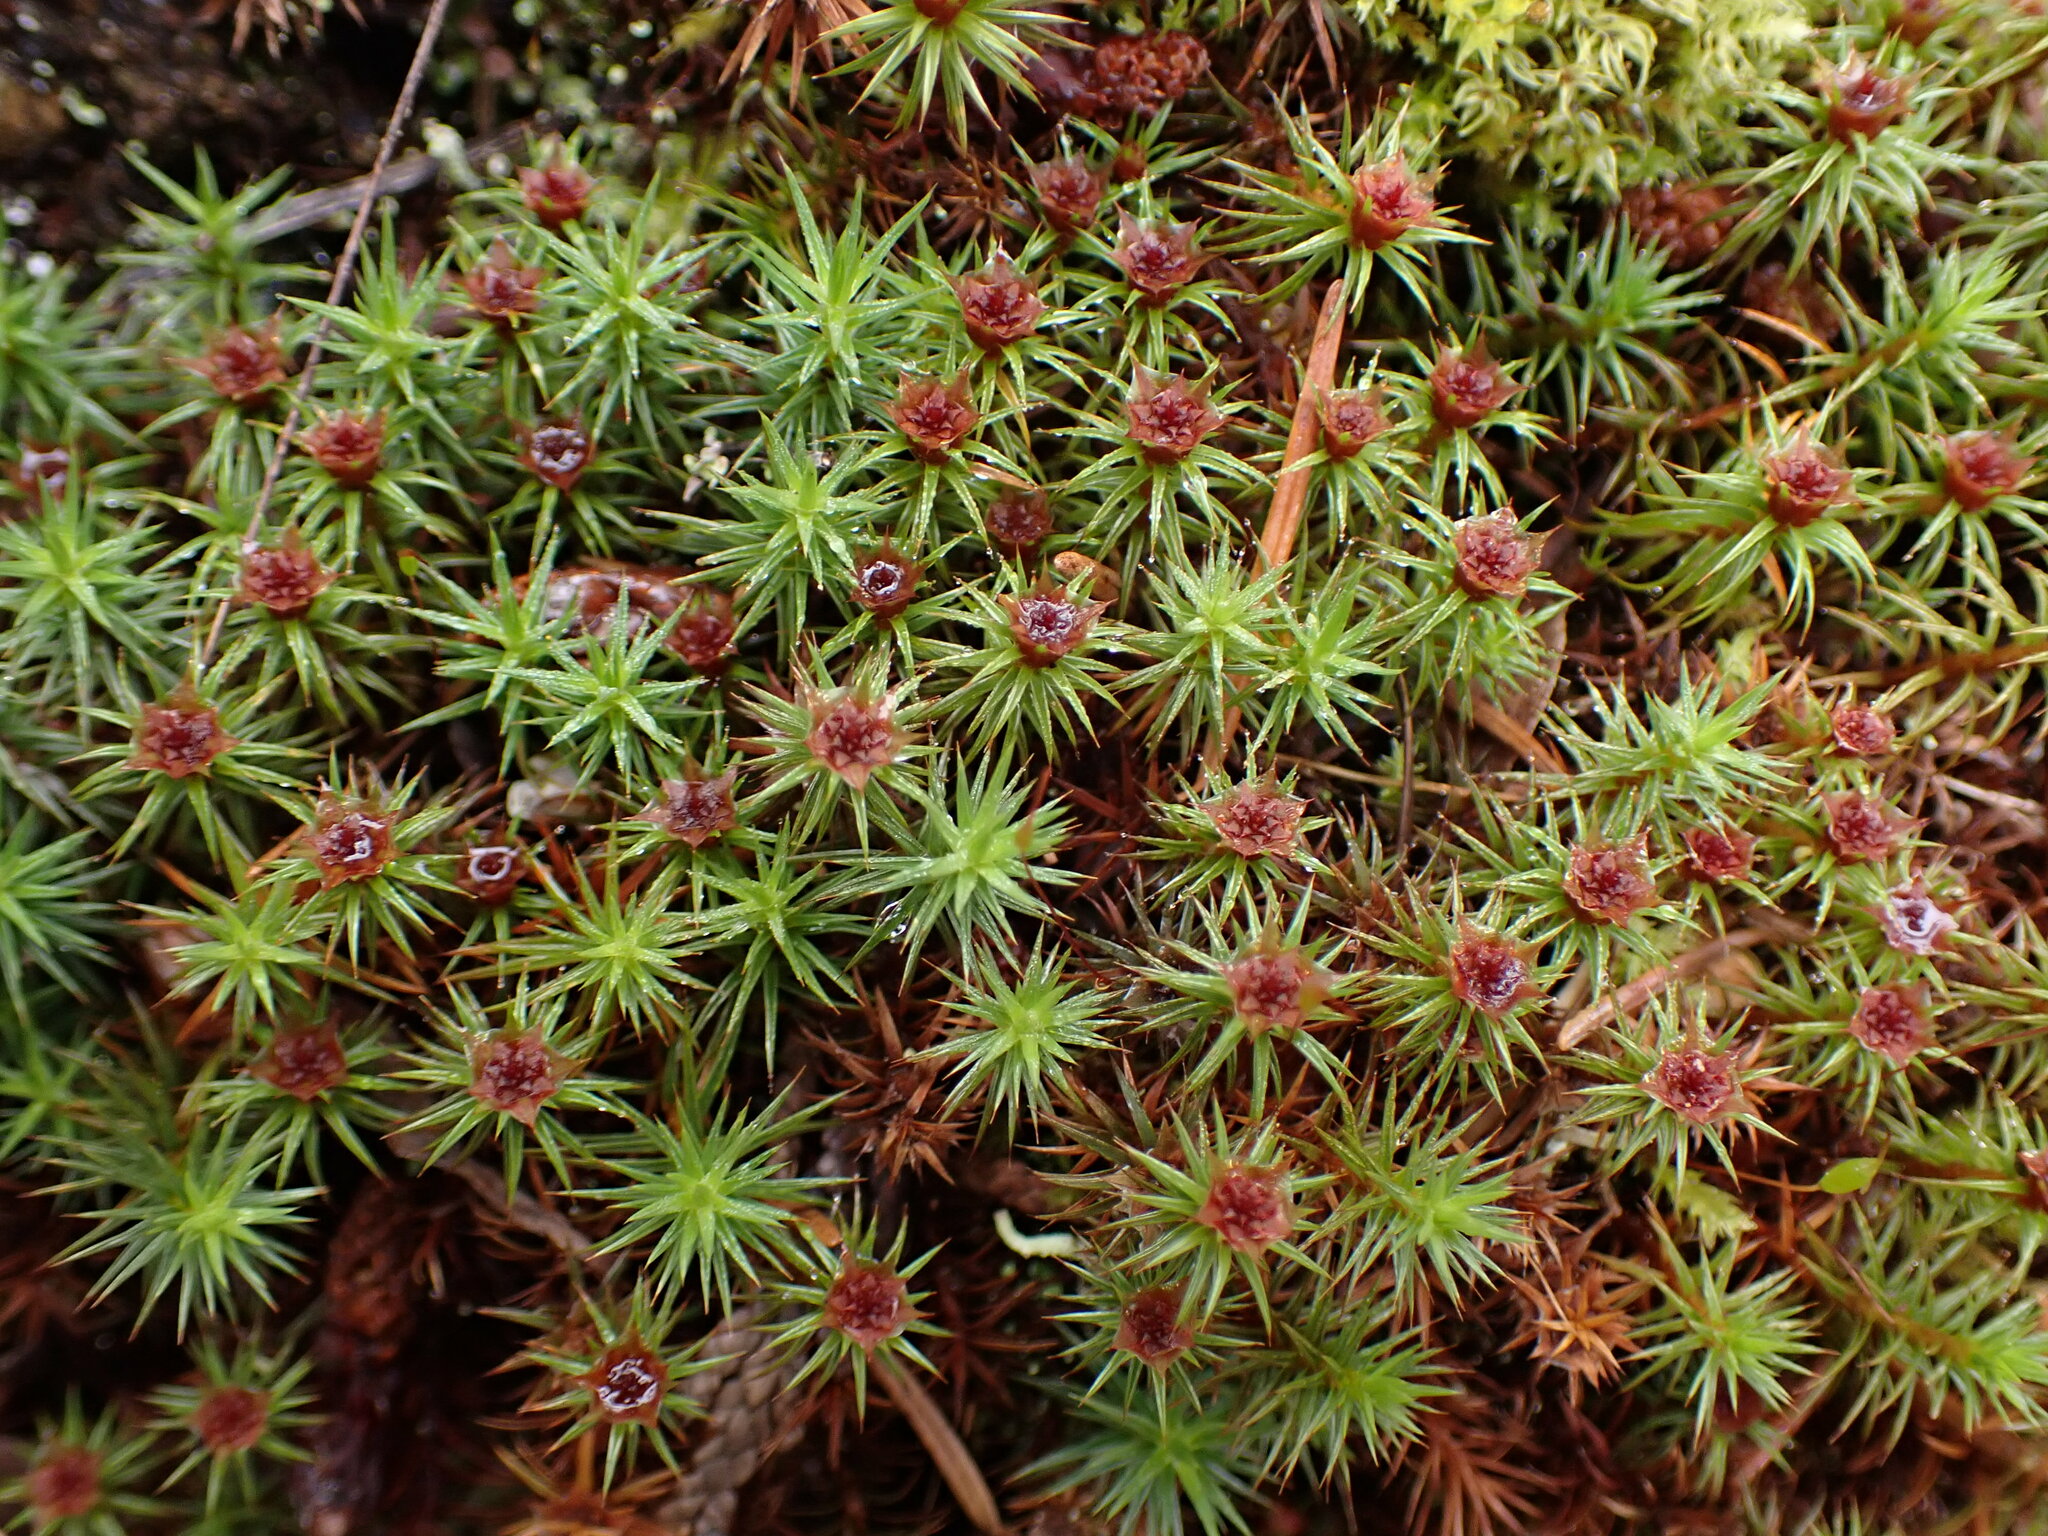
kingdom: Plantae
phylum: Bryophyta
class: Polytrichopsida
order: Polytrichales
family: Polytrichaceae
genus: Polytrichum
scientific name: Polytrichum juniperinum
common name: Juniper haircap moss
